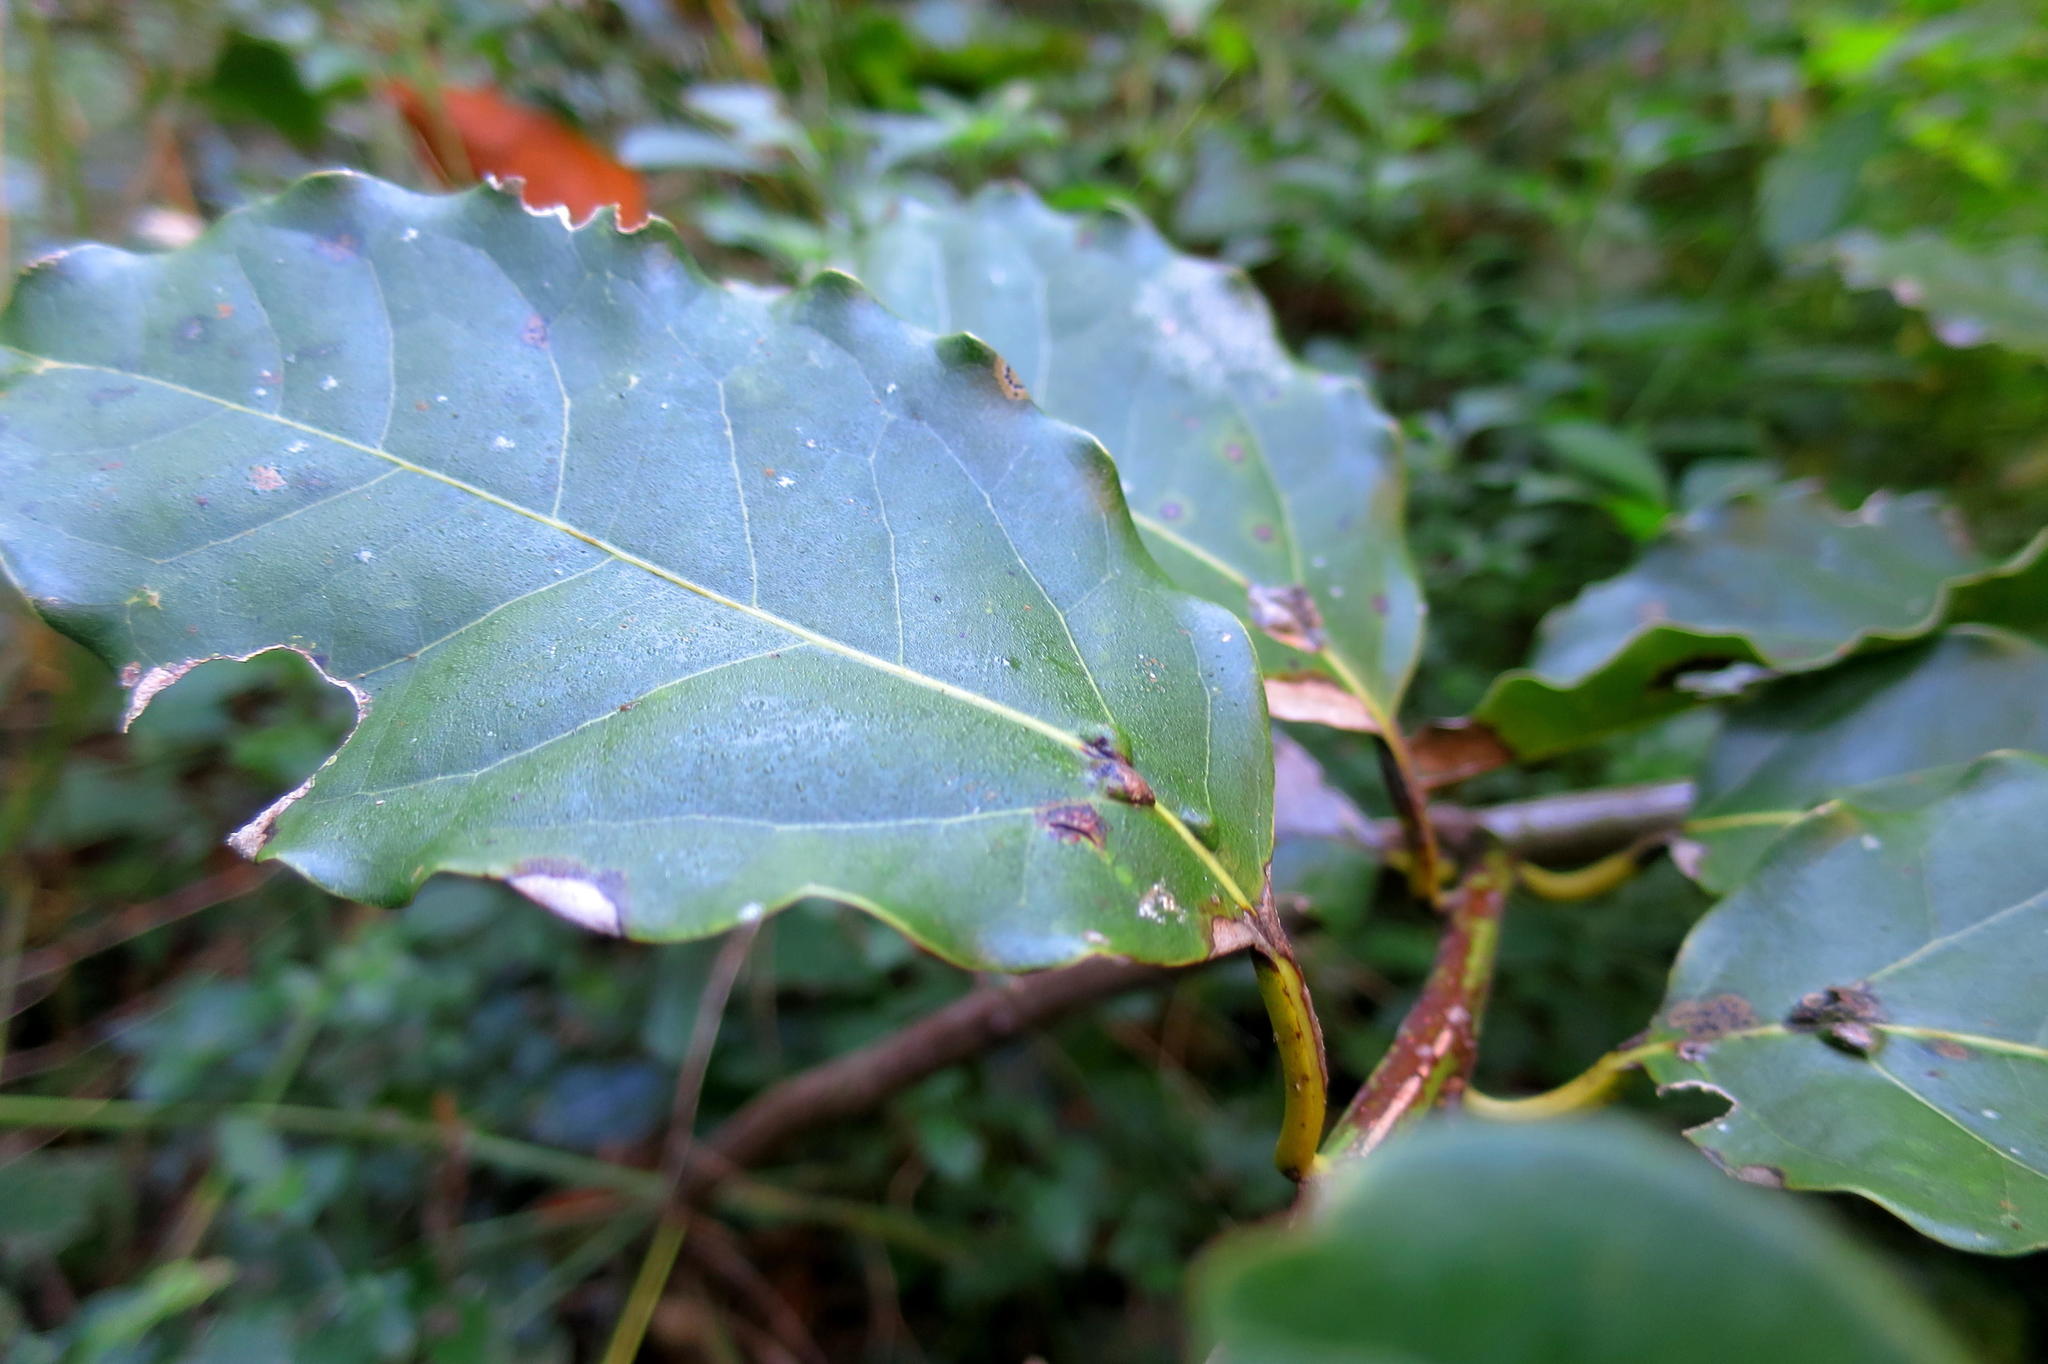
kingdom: Plantae
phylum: Tracheophyta
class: Magnoliopsida
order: Laurales
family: Lauraceae
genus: Ocotea
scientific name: Ocotea bullata
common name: Black stinkwood
